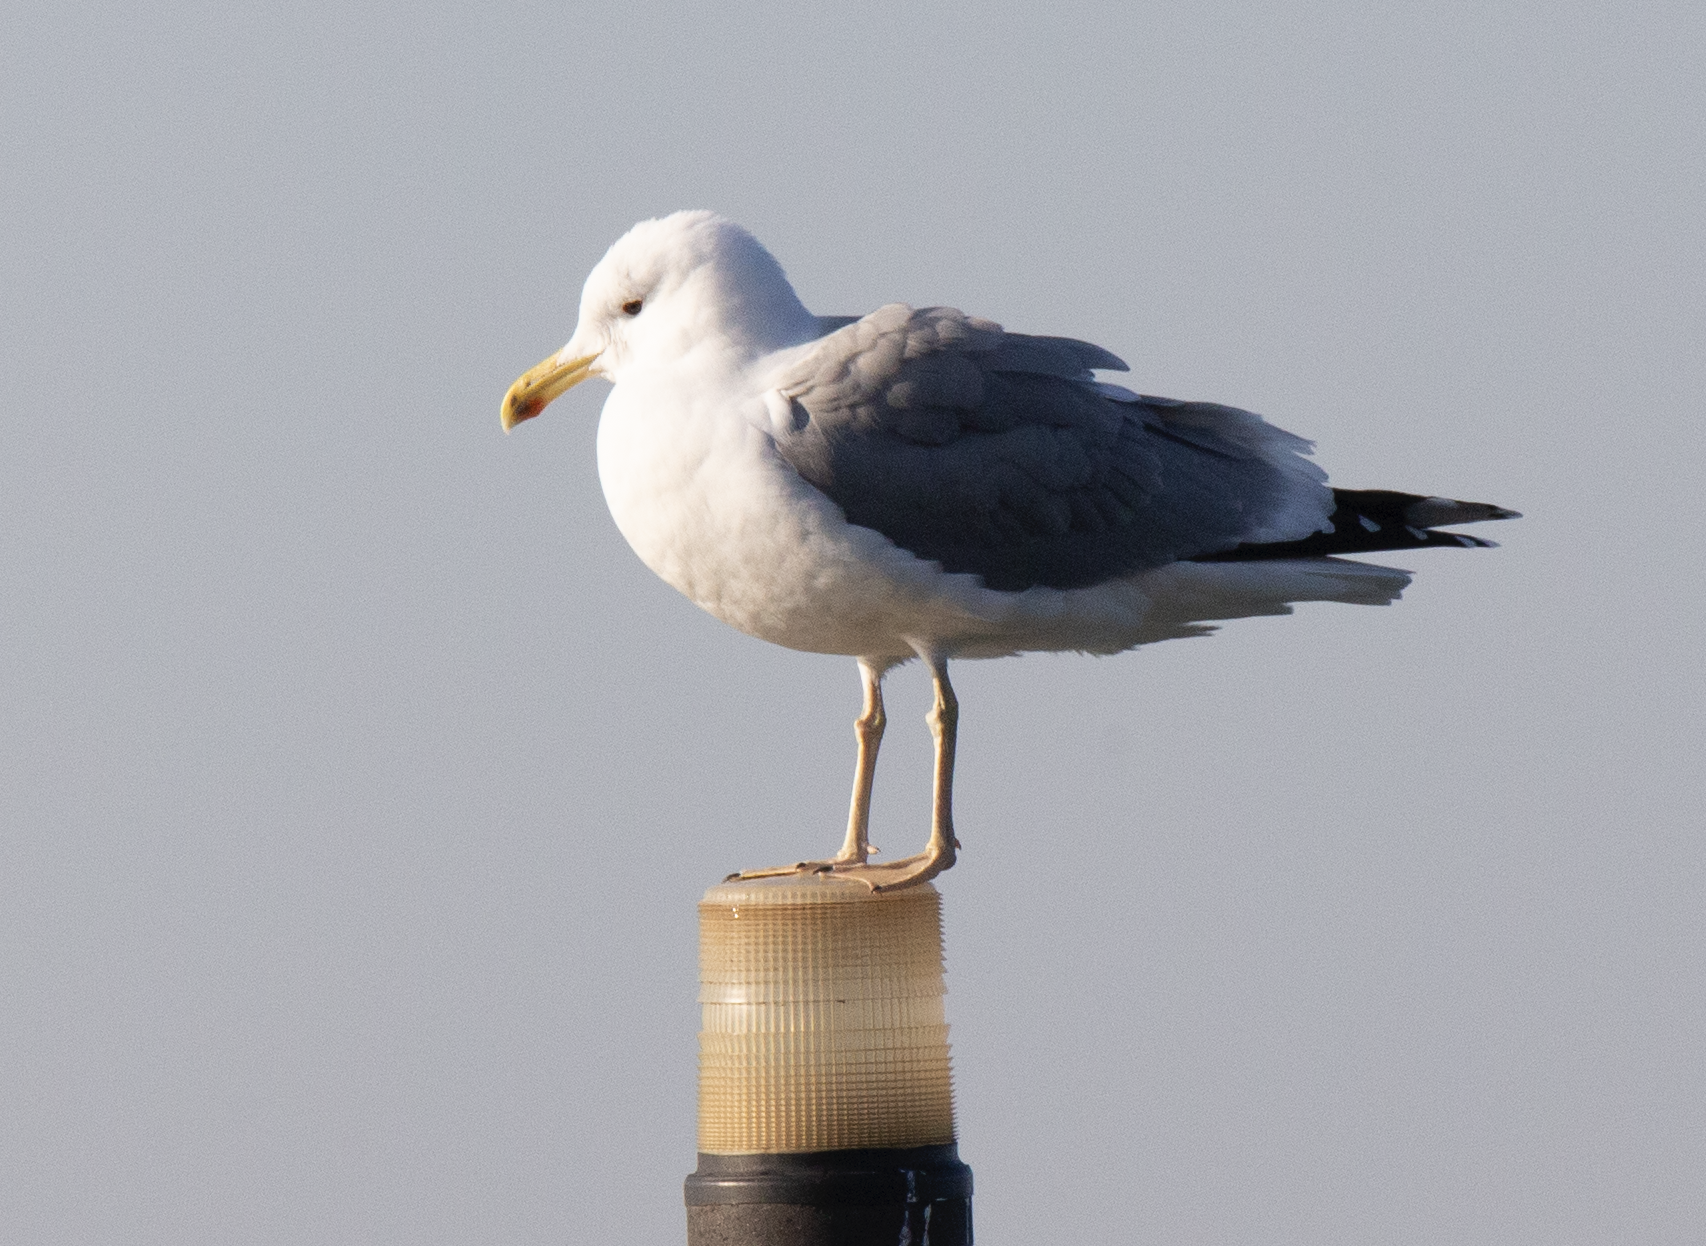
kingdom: Animalia
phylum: Chordata
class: Aves
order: Charadriiformes
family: Laridae
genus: Larus
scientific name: Larus cachinnans
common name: Caspian gull
